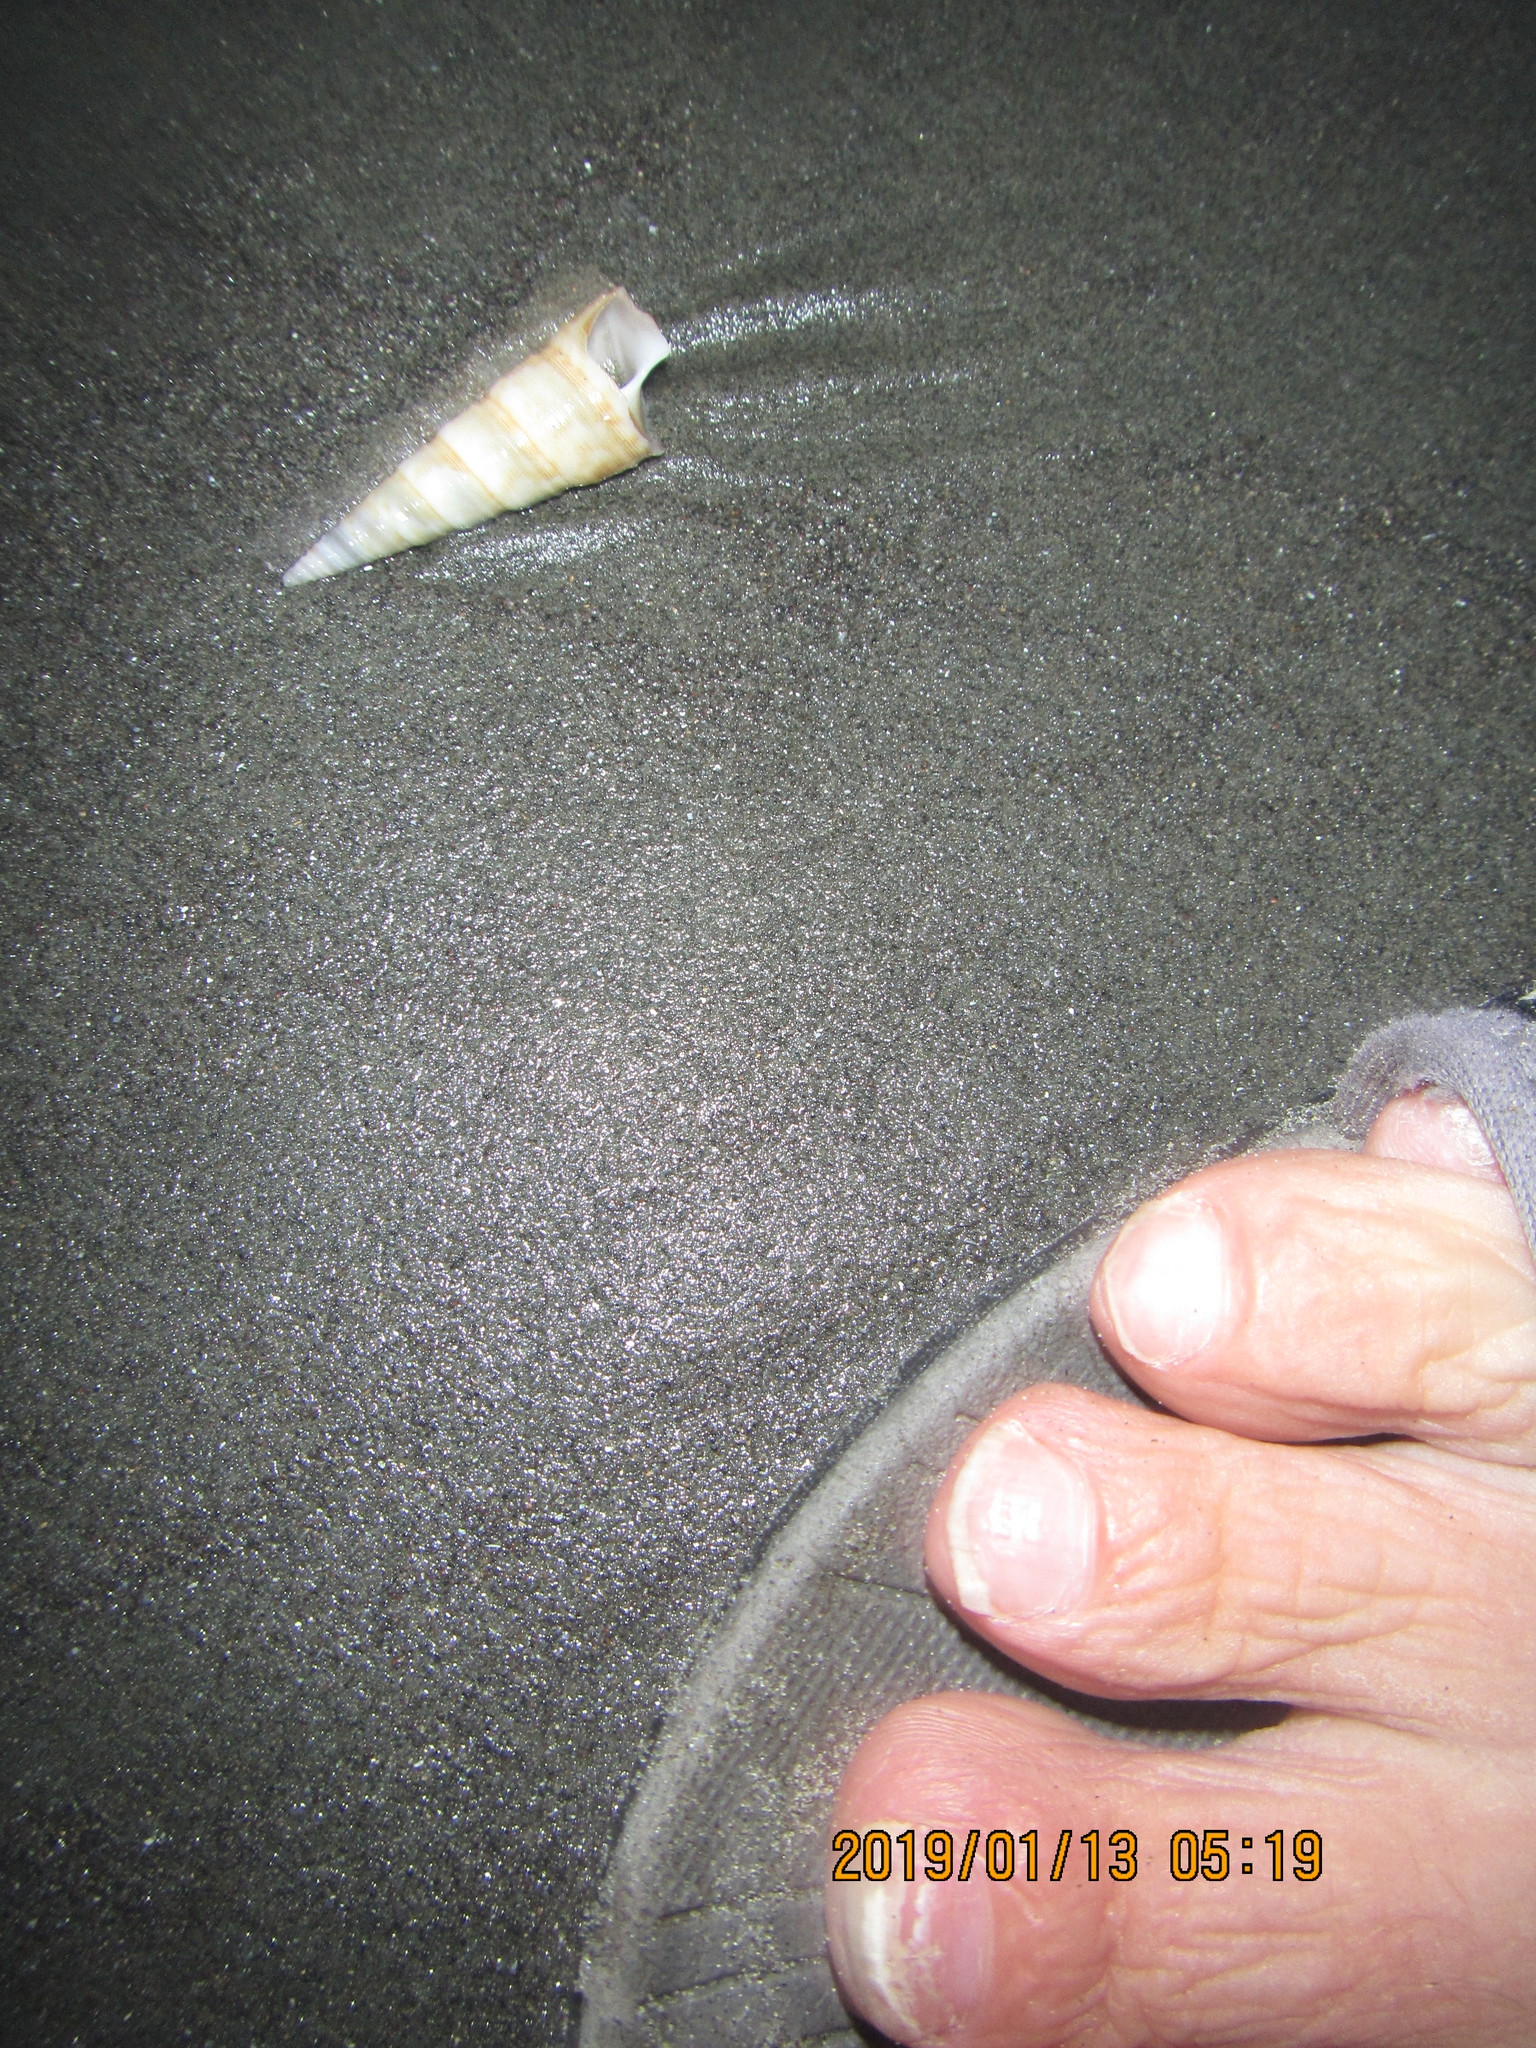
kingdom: Animalia
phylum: Mollusca
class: Gastropoda
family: Turritellidae
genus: Maoricolpus
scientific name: Maoricolpus roseus
